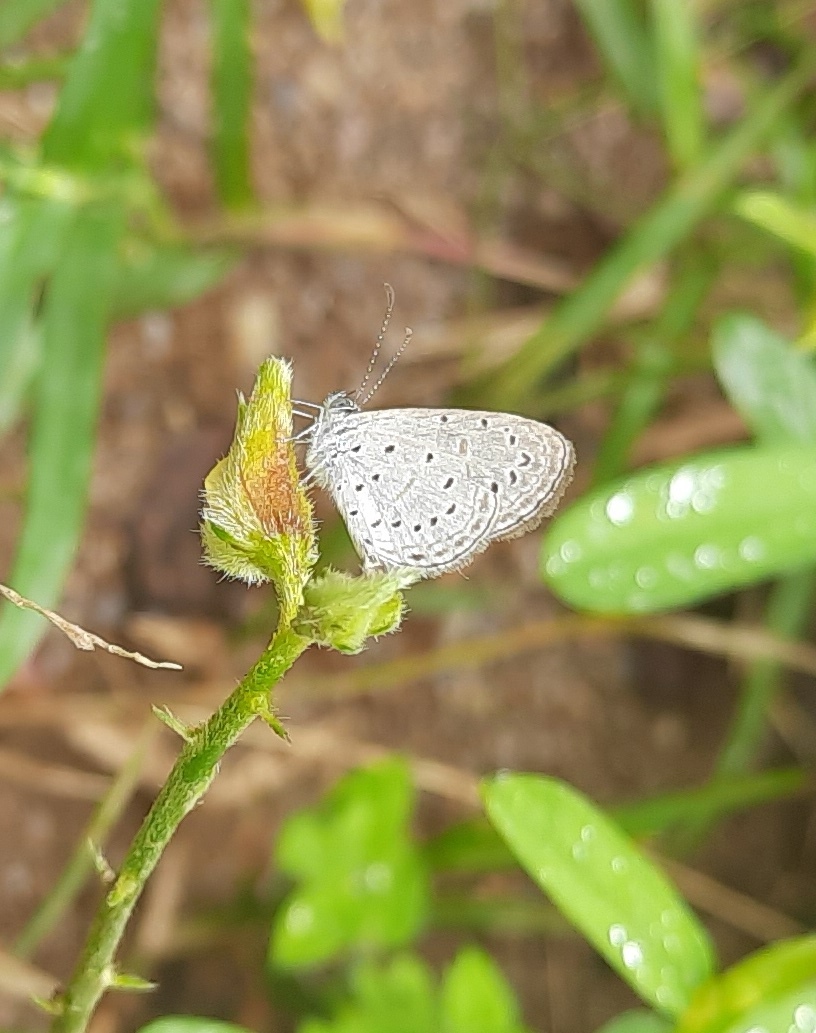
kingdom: Animalia
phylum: Arthropoda
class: Insecta
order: Lepidoptera
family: Lycaenidae
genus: Zizula
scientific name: Zizula hylax
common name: Gaika blue
